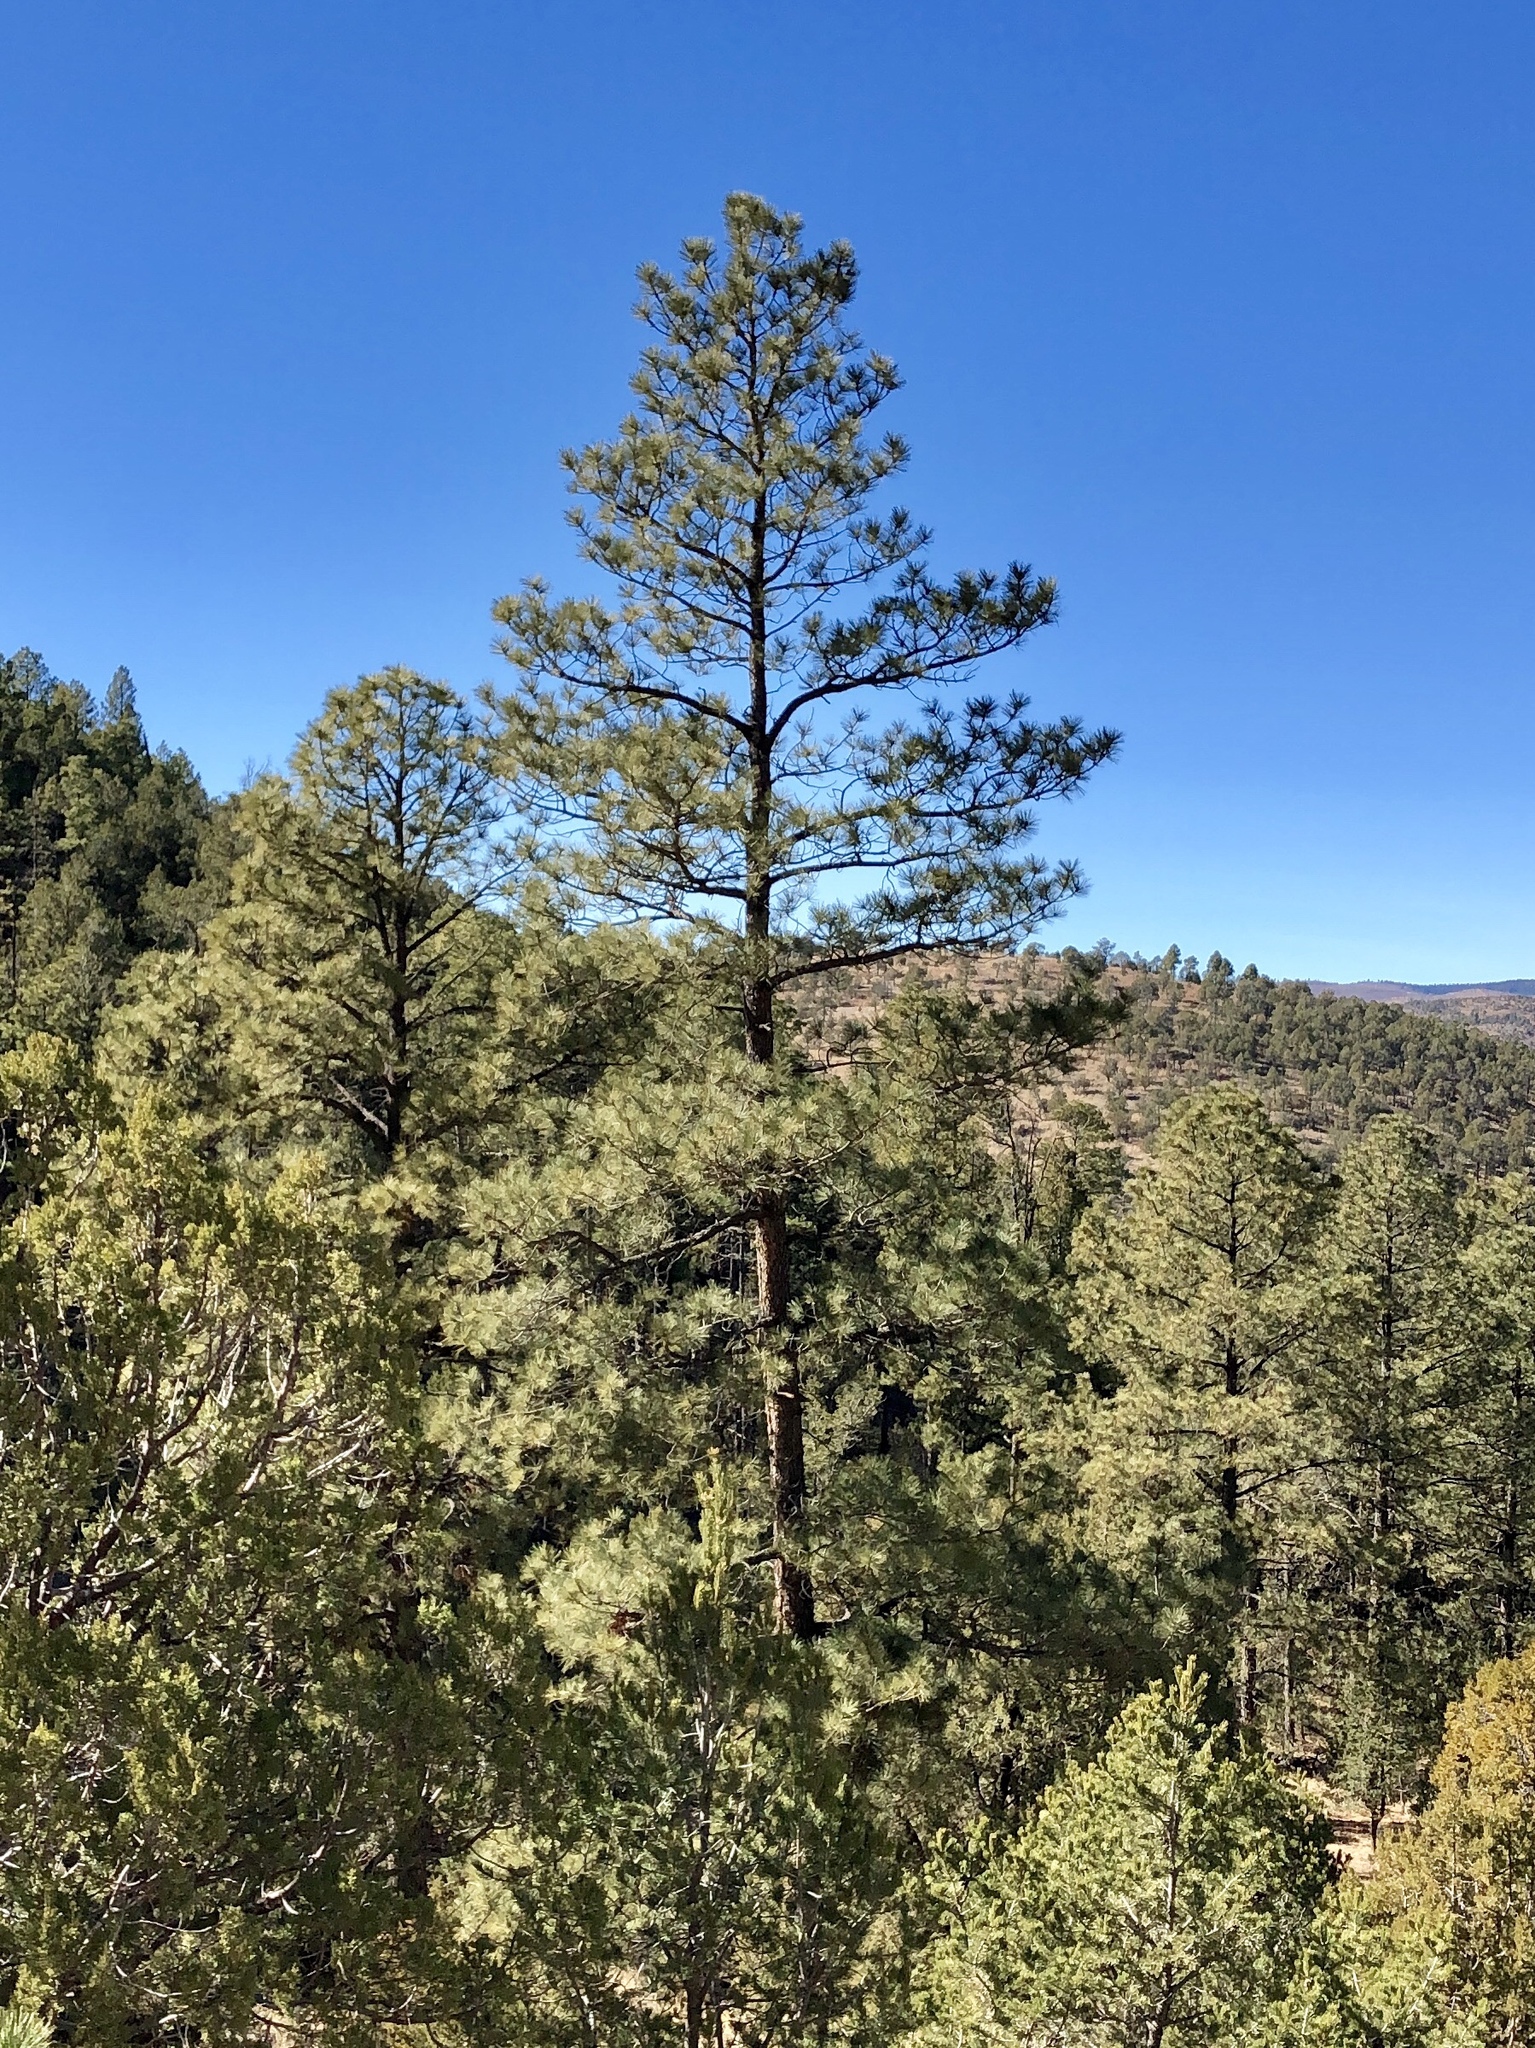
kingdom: Plantae
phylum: Tracheophyta
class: Pinopsida
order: Pinales
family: Pinaceae
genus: Pinus
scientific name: Pinus ponderosa
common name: Western yellow-pine
